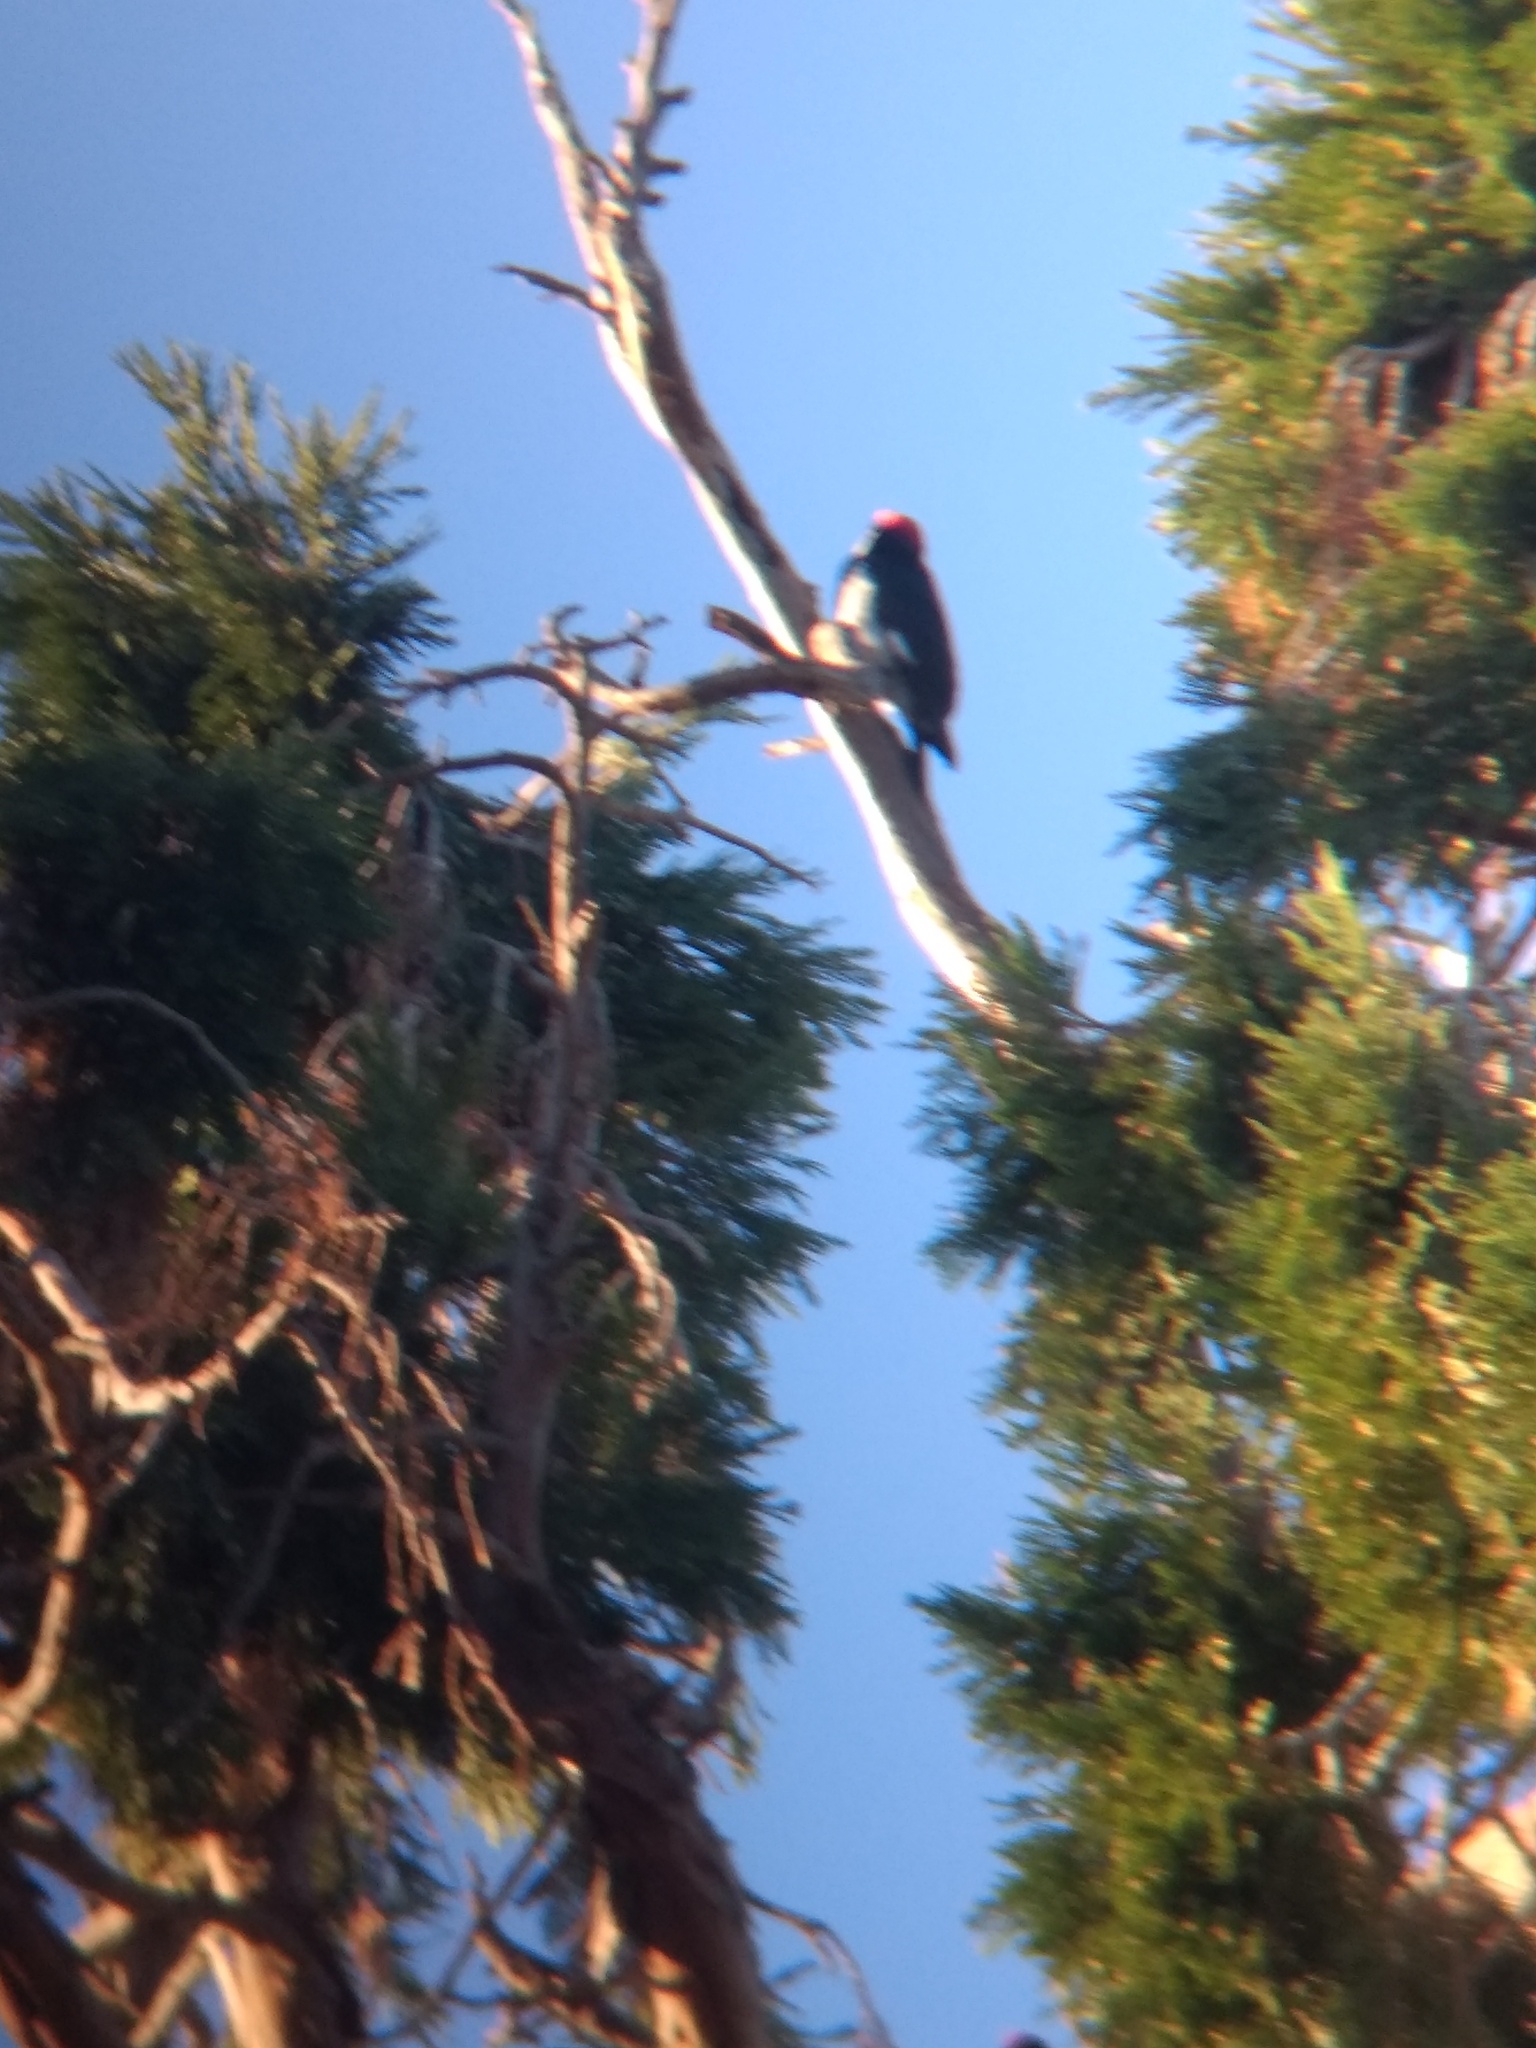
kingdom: Animalia
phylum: Chordata
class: Aves
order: Piciformes
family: Picidae
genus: Melanerpes
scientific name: Melanerpes formicivorus
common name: Acorn woodpecker
